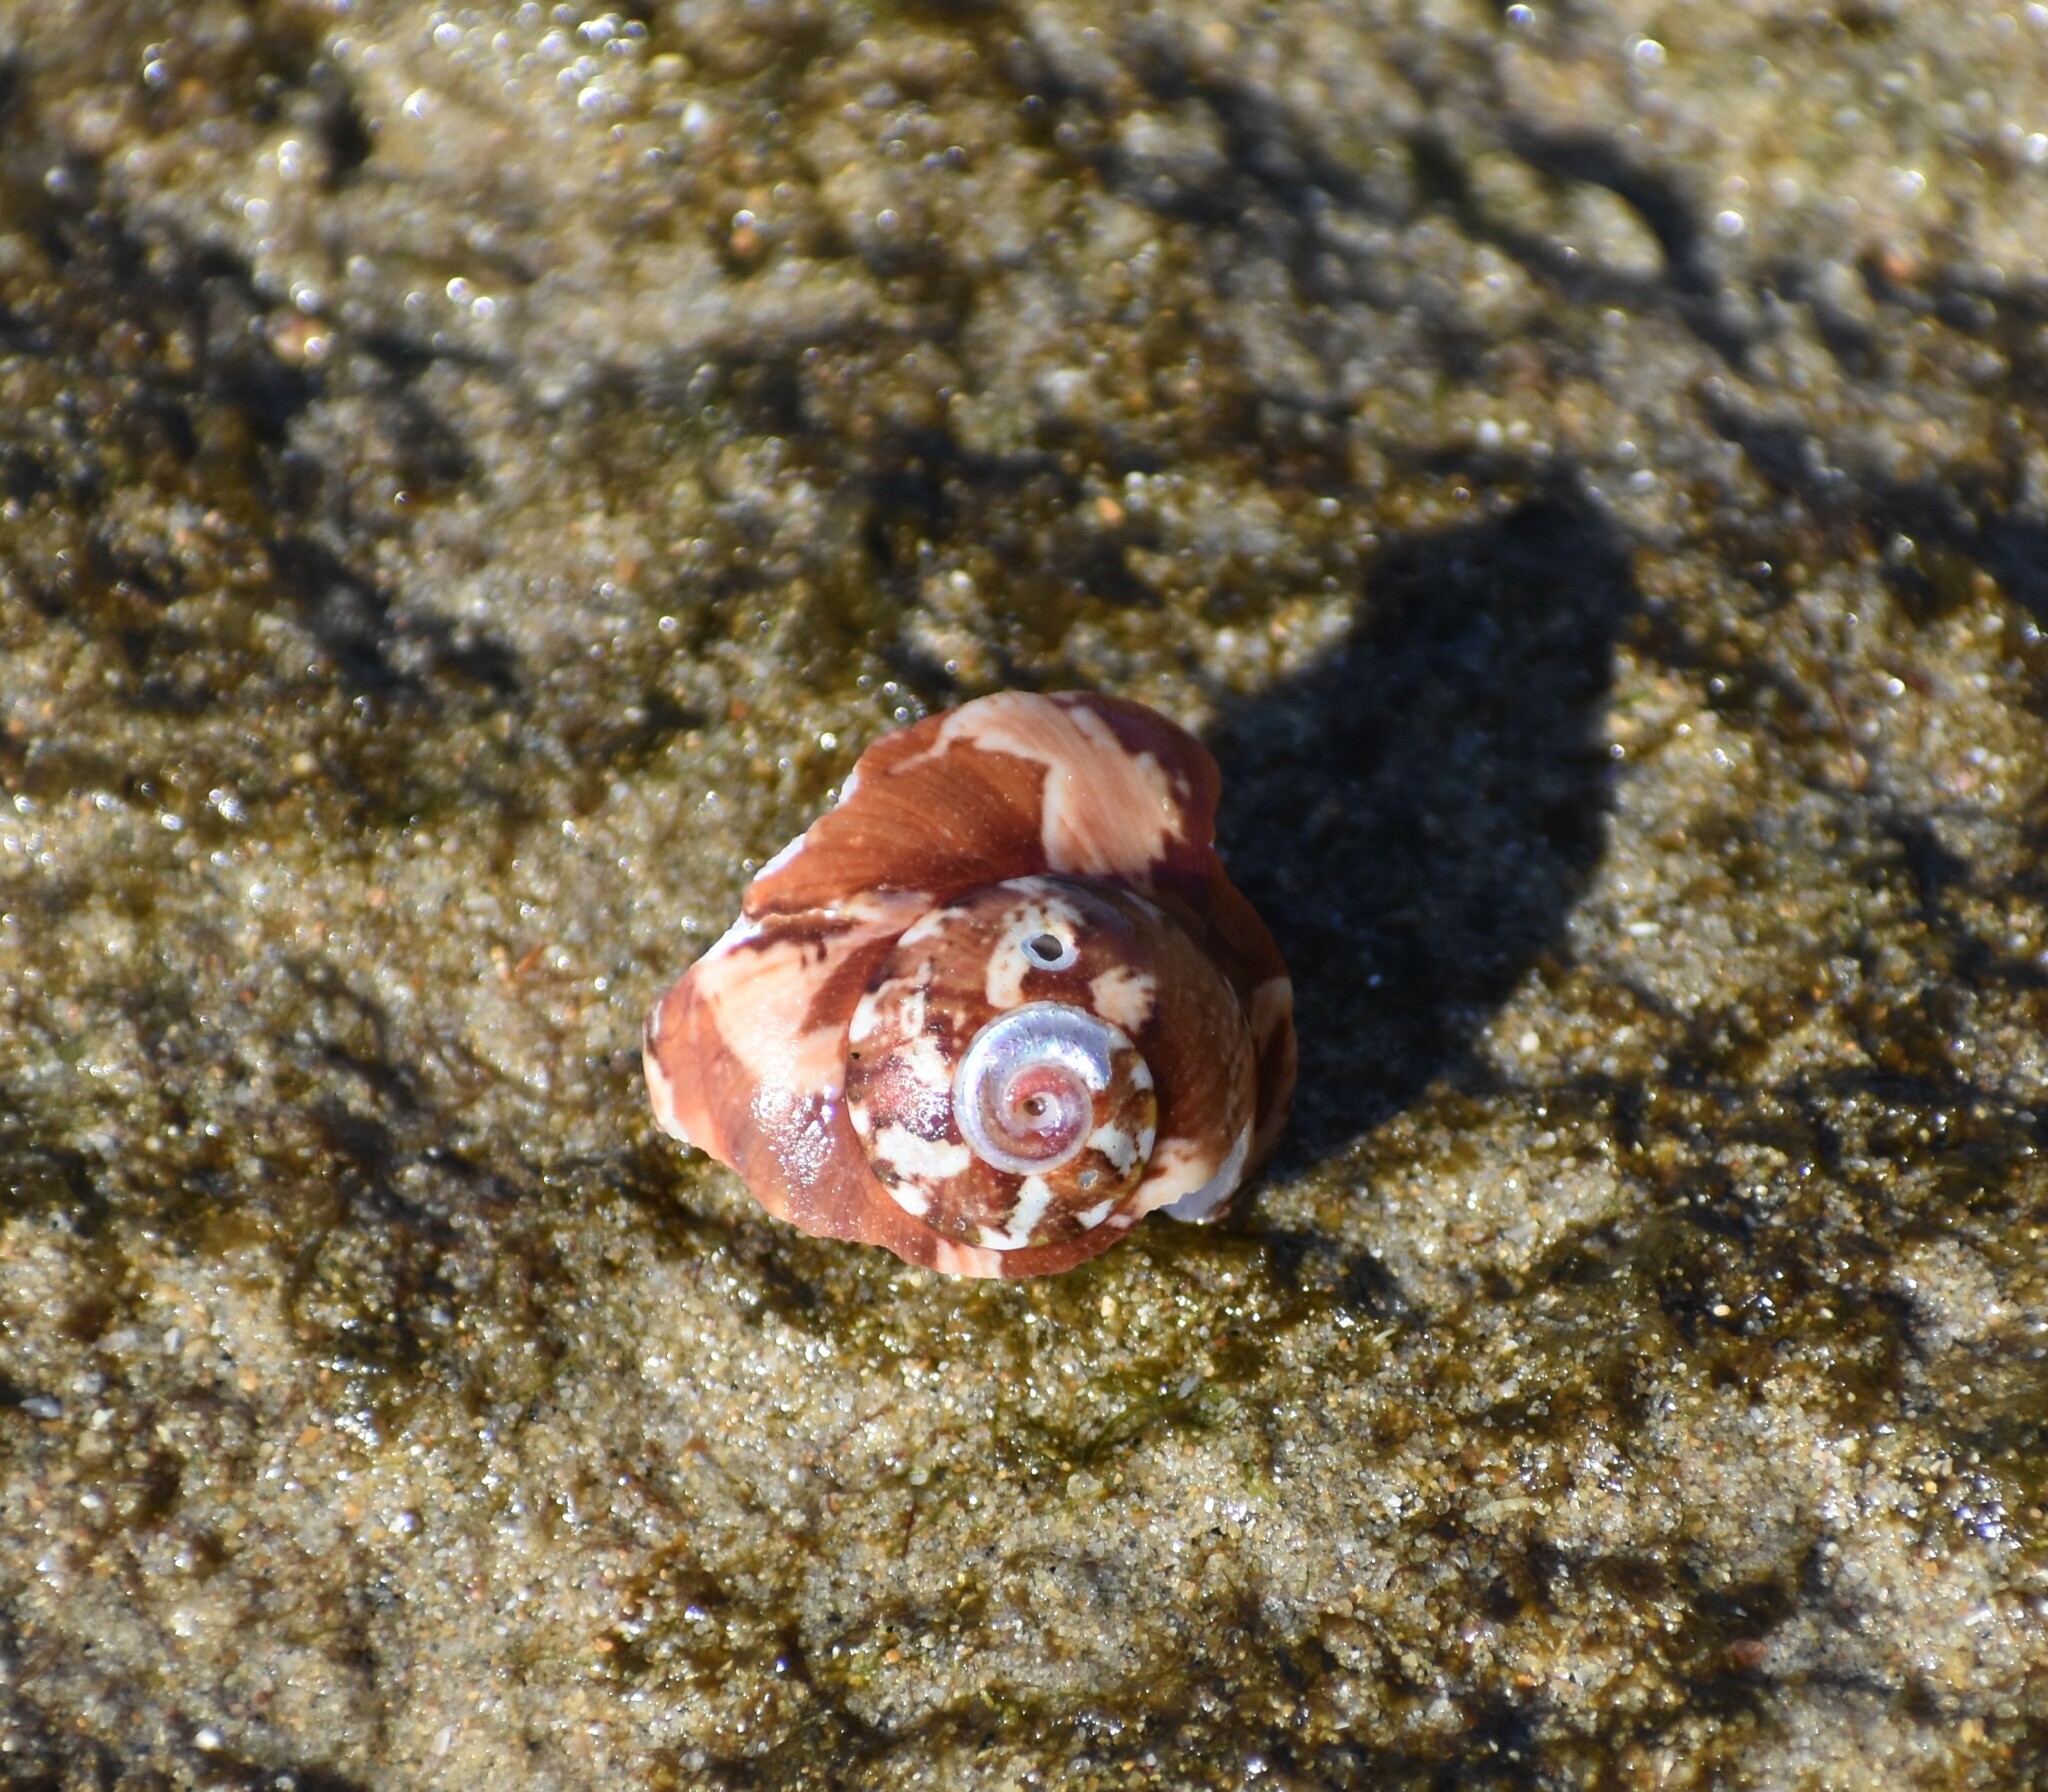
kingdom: Animalia
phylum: Mollusca
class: Gastropoda
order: Trochida
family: Turbinidae
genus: Turbo
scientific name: Turbo cidaris
